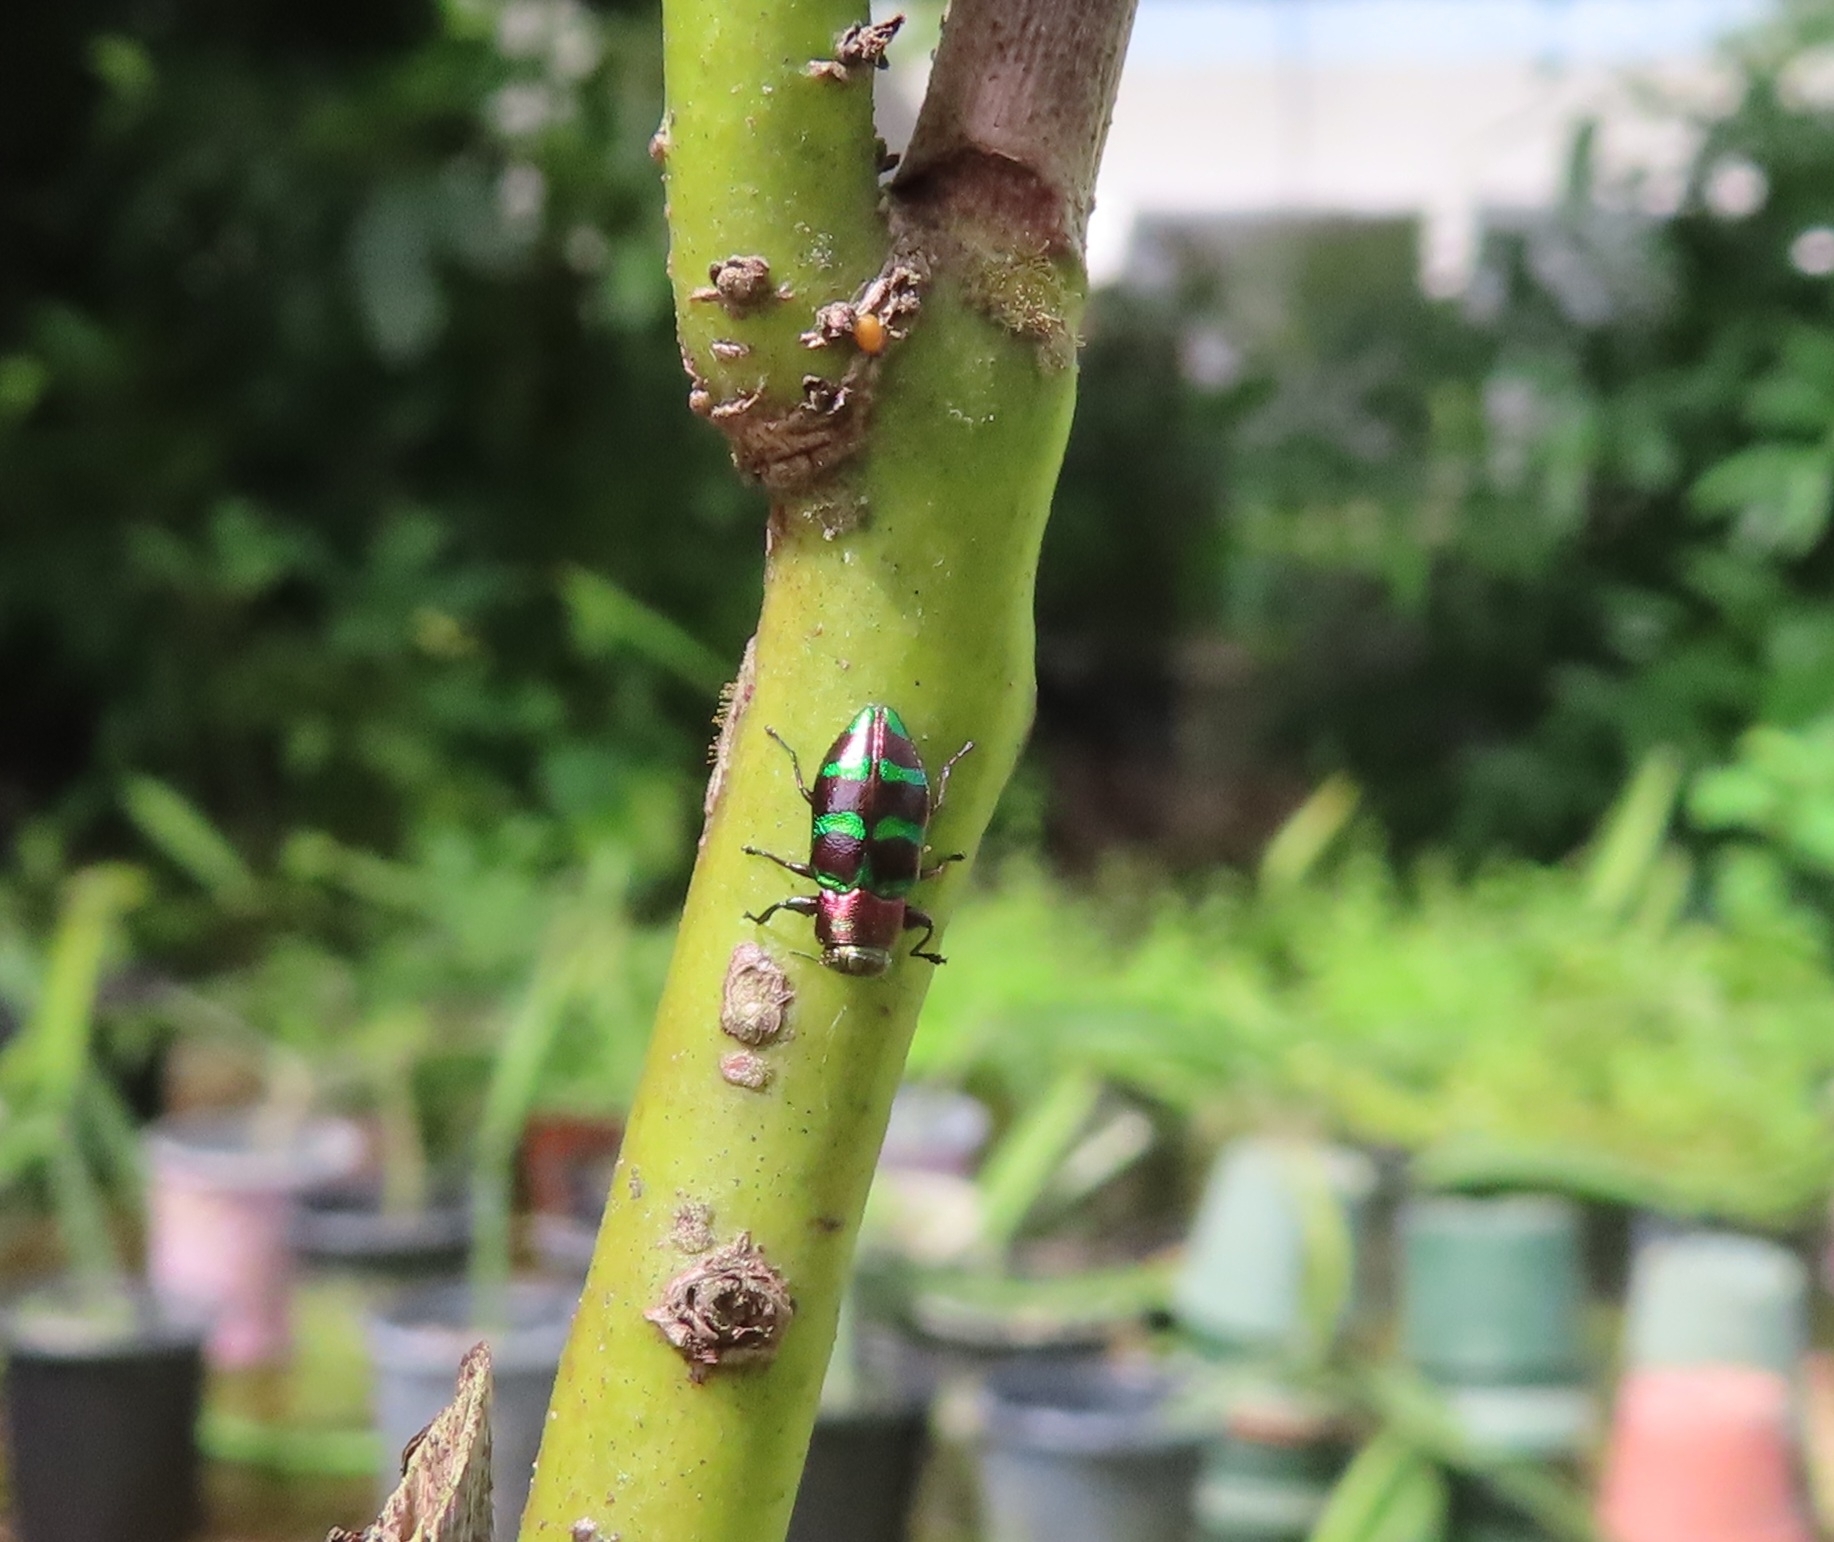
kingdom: Animalia
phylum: Arthropoda
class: Insecta
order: Coleoptera
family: Buprestidae
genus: Chrysobothris
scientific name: Chrysobothris wolcotti
